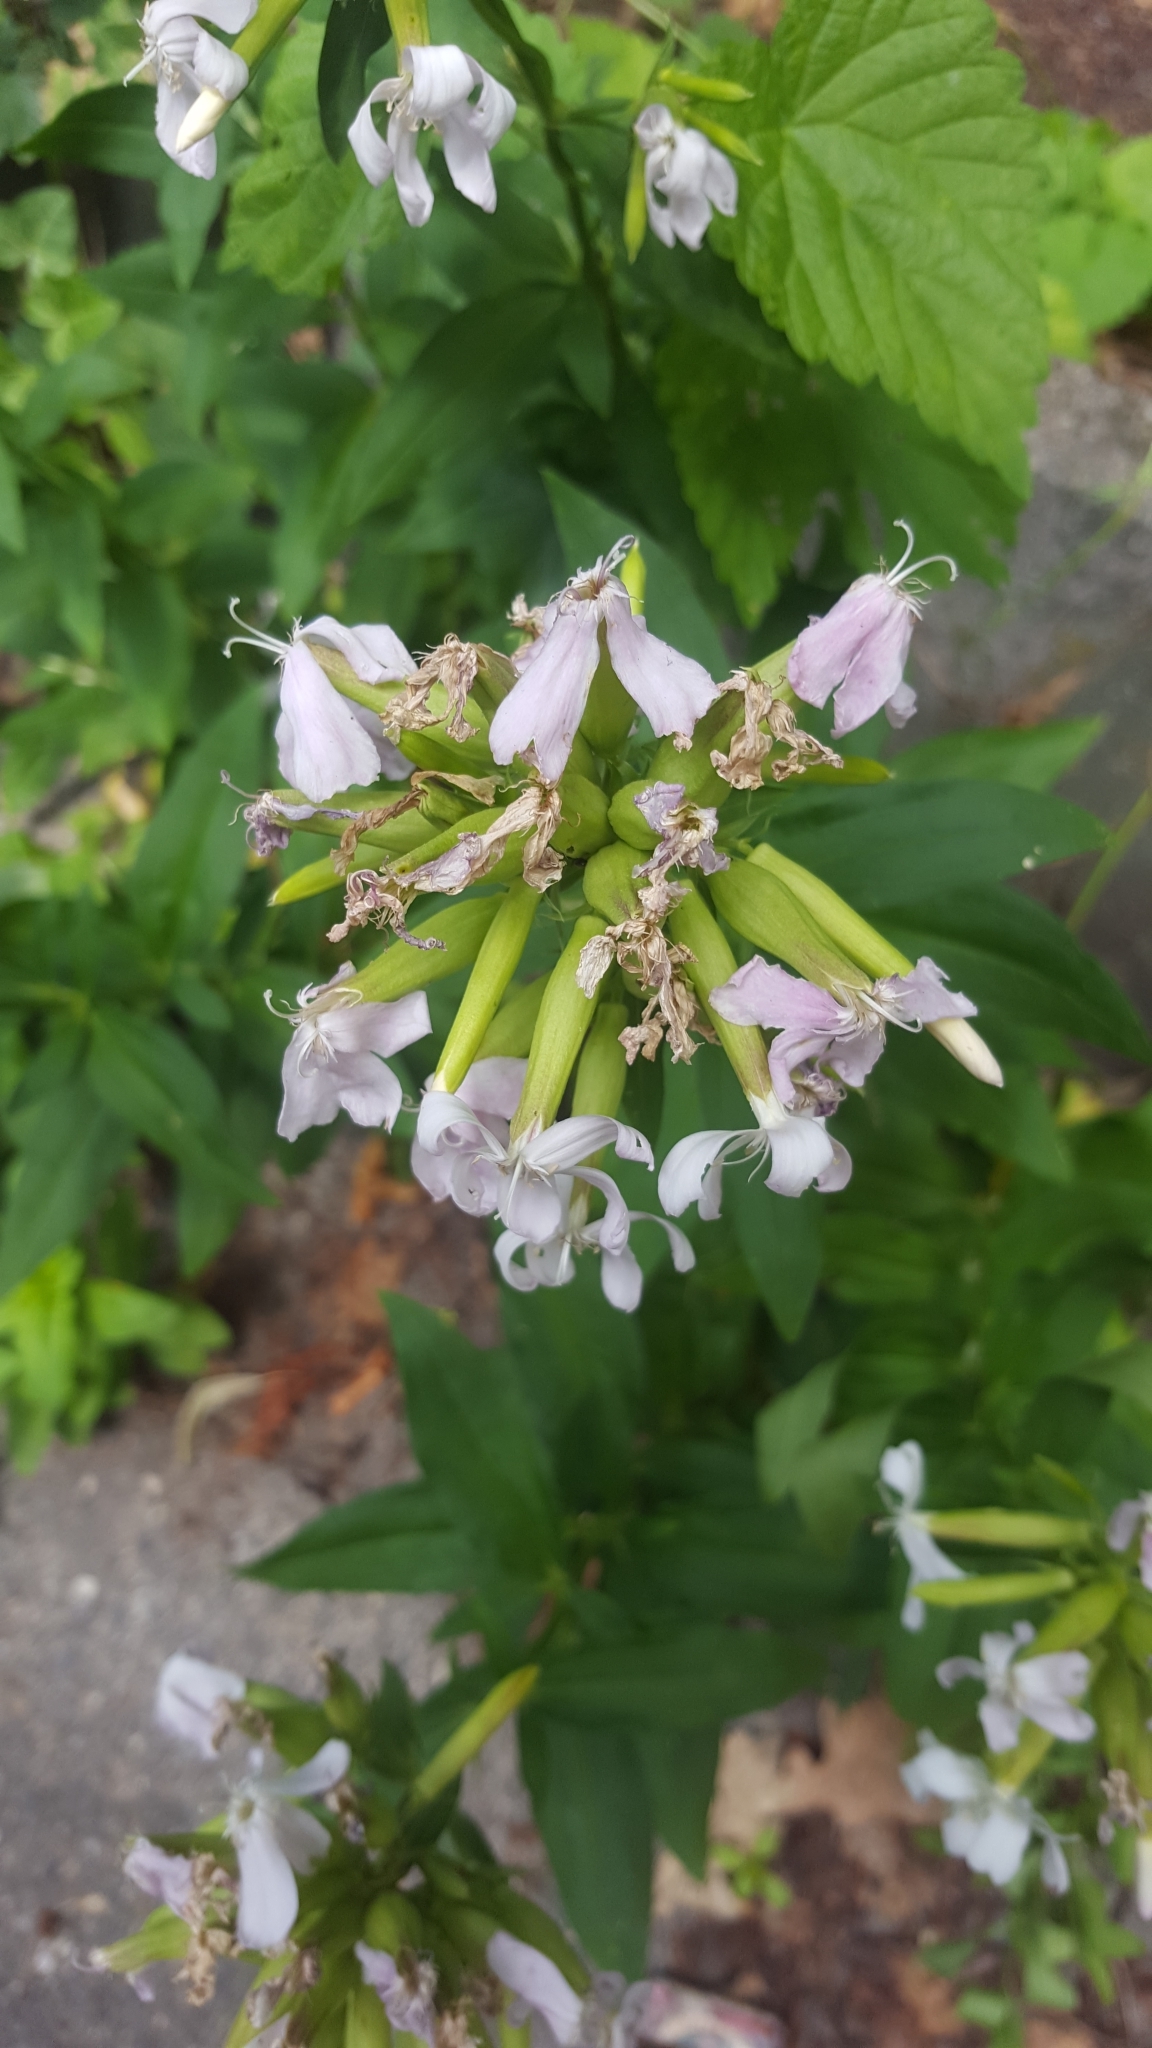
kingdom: Plantae
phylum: Tracheophyta
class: Magnoliopsida
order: Caryophyllales
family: Caryophyllaceae
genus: Saponaria
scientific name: Saponaria officinalis
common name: Soapwort
